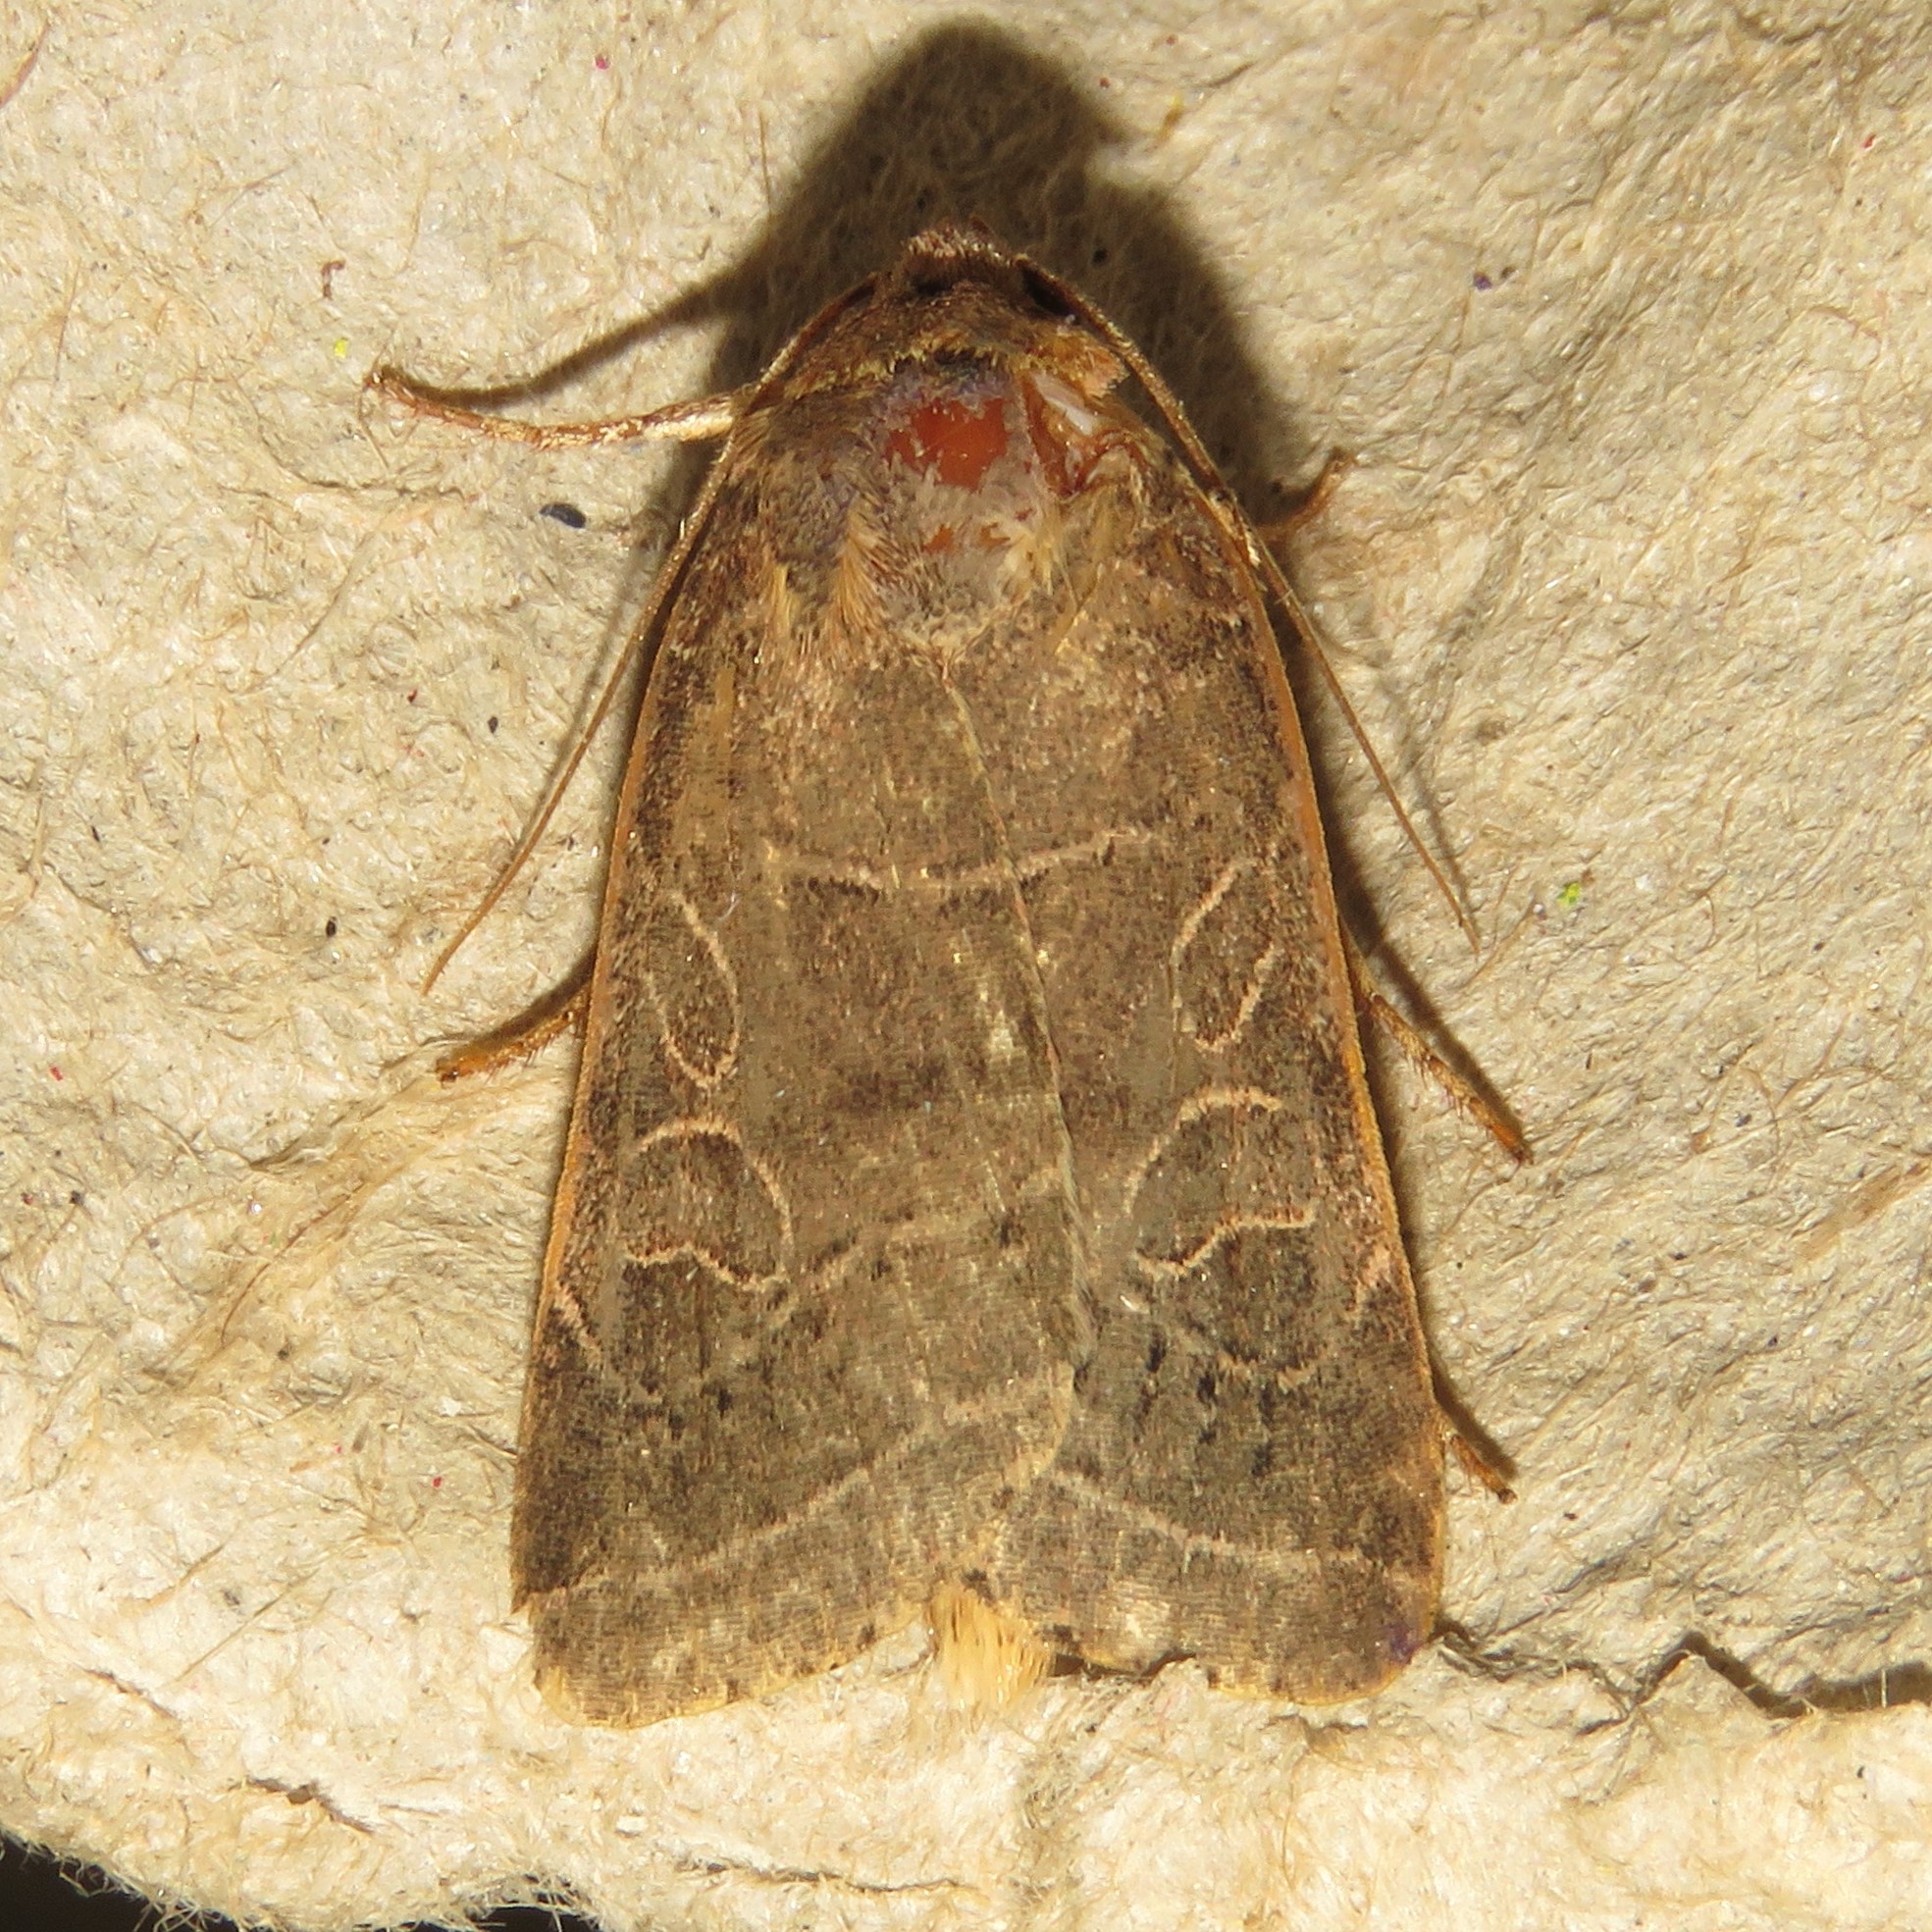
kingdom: Animalia
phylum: Arthropoda
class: Insecta
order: Lepidoptera
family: Noctuidae
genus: Orthodes
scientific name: Orthodes majuscula
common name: Rustic quaker
